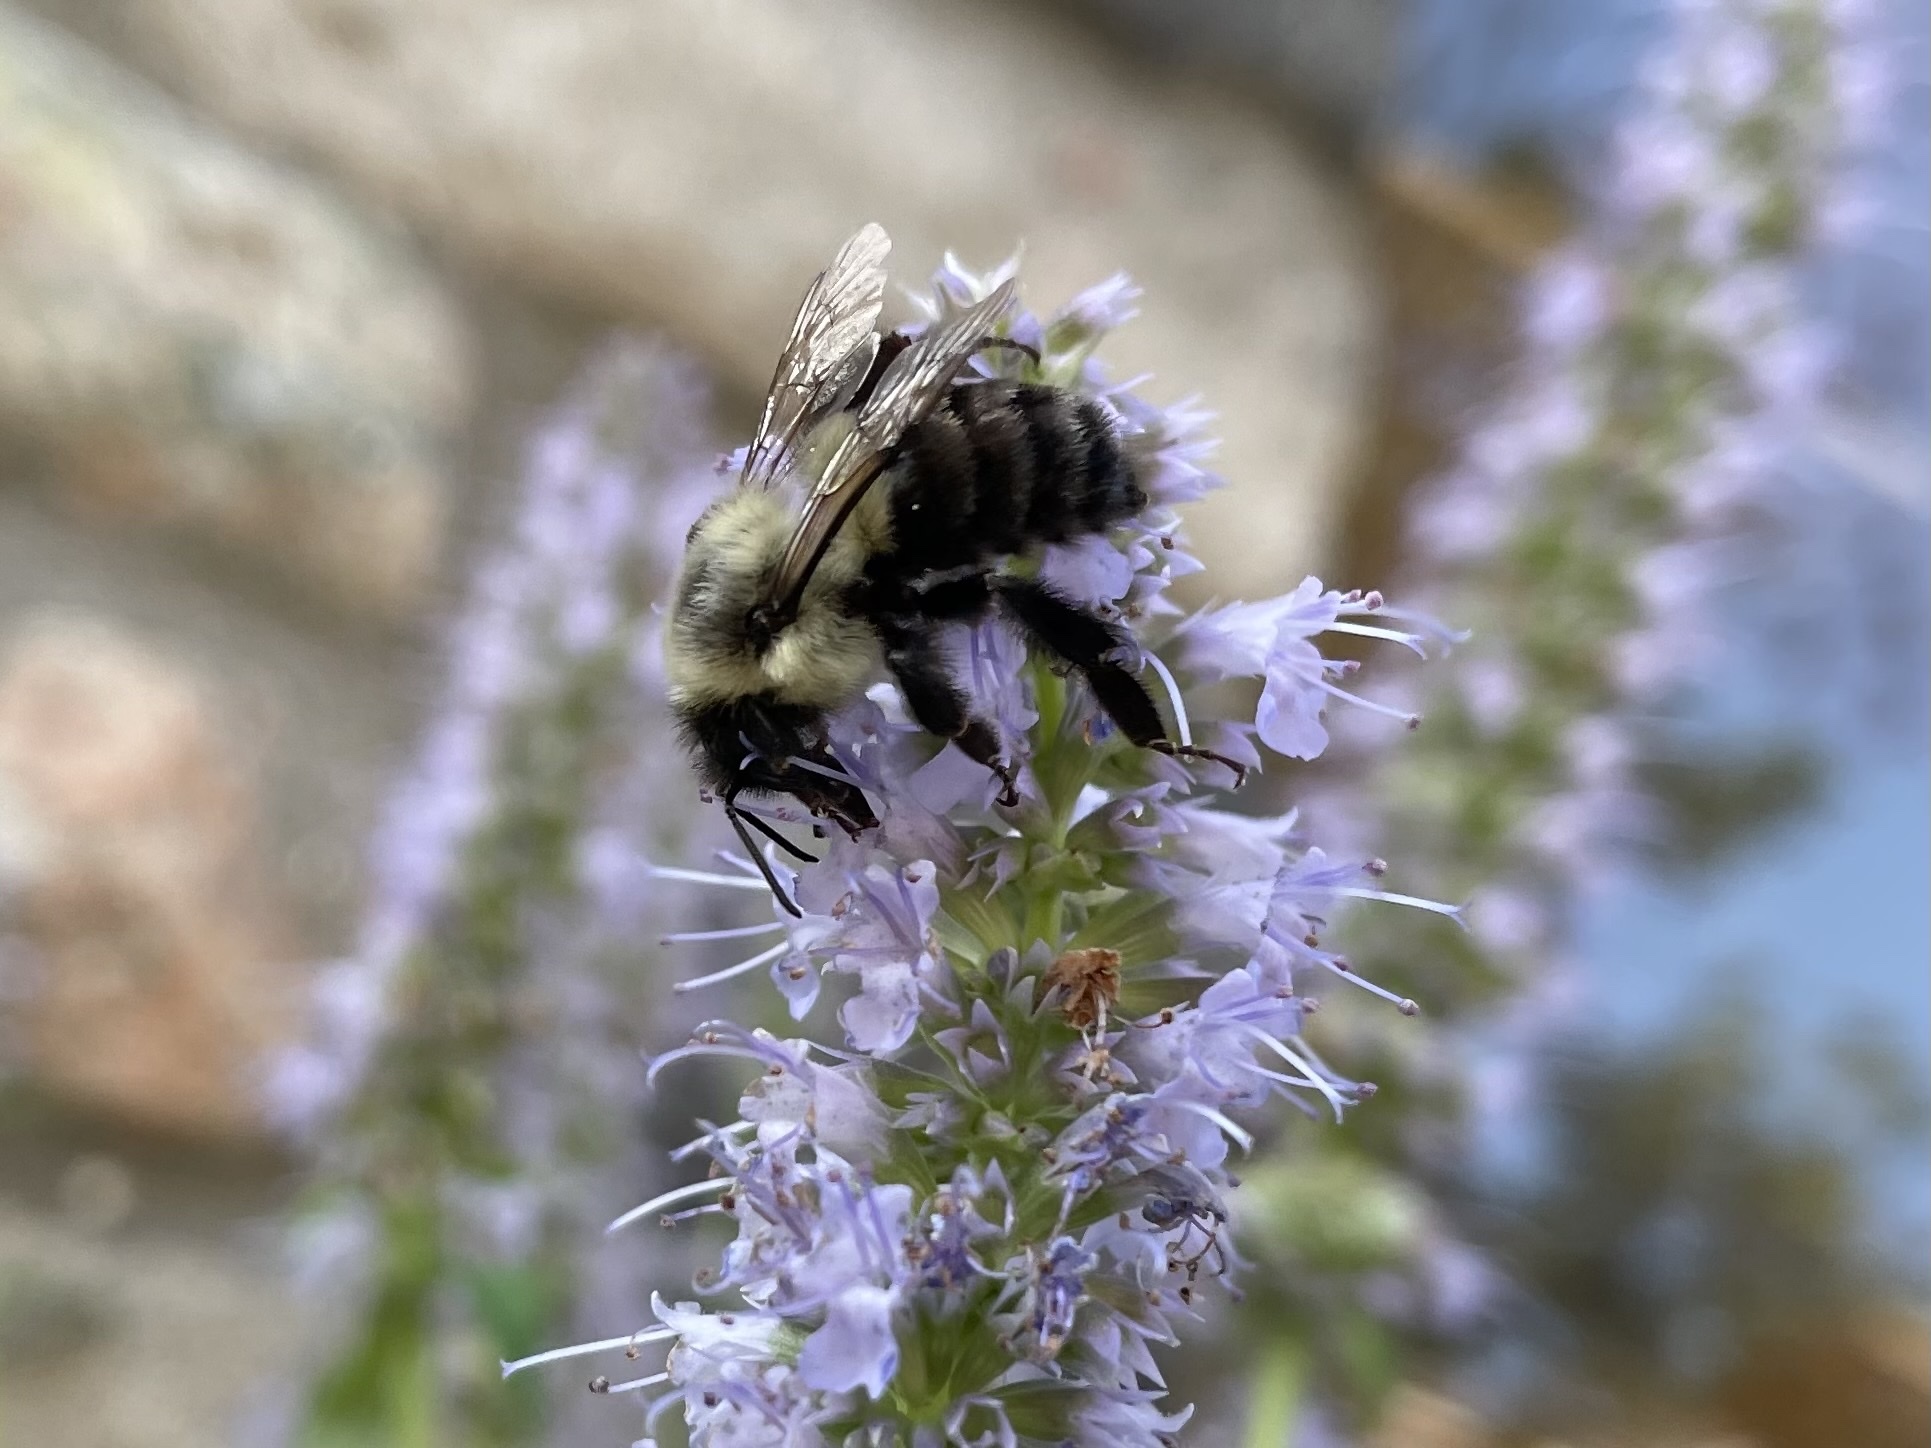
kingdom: Animalia
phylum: Arthropoda
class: Insecta
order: Hymenoptera
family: Apidae
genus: Bombus
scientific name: Bombus impatiens
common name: Common eastern bumble bee
